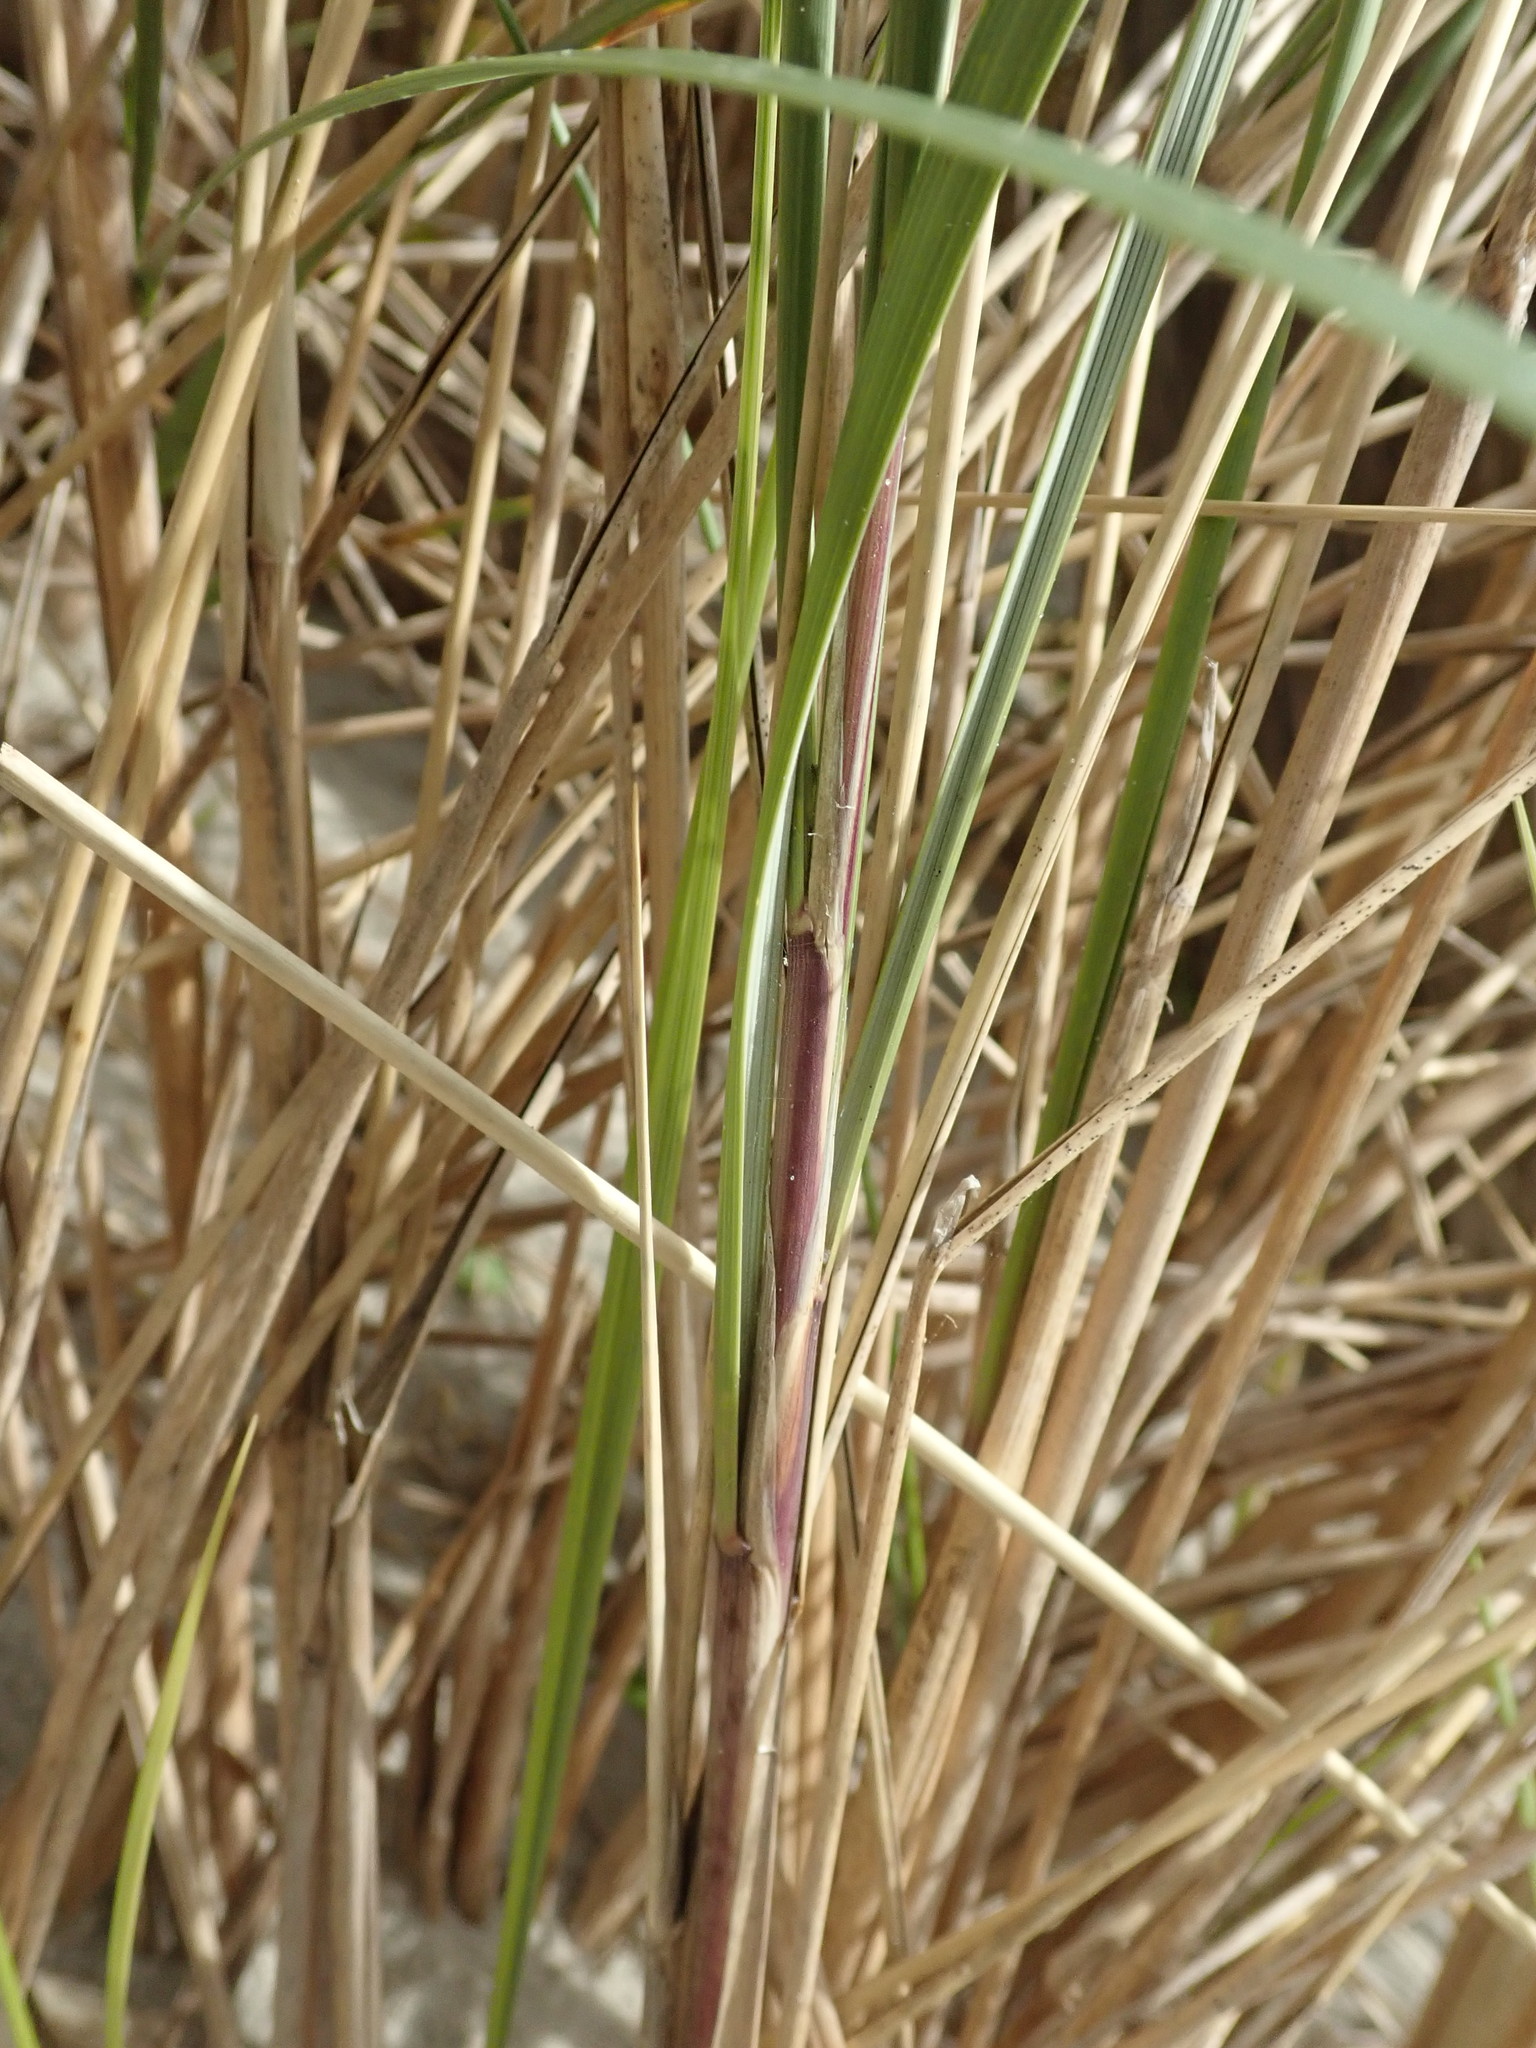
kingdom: Plantae
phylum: Tracheophyta
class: Liliopsida
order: Poales
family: Poaceae
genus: Calamagrostis
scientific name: Calamagrostis arenaria
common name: European beachgrass
